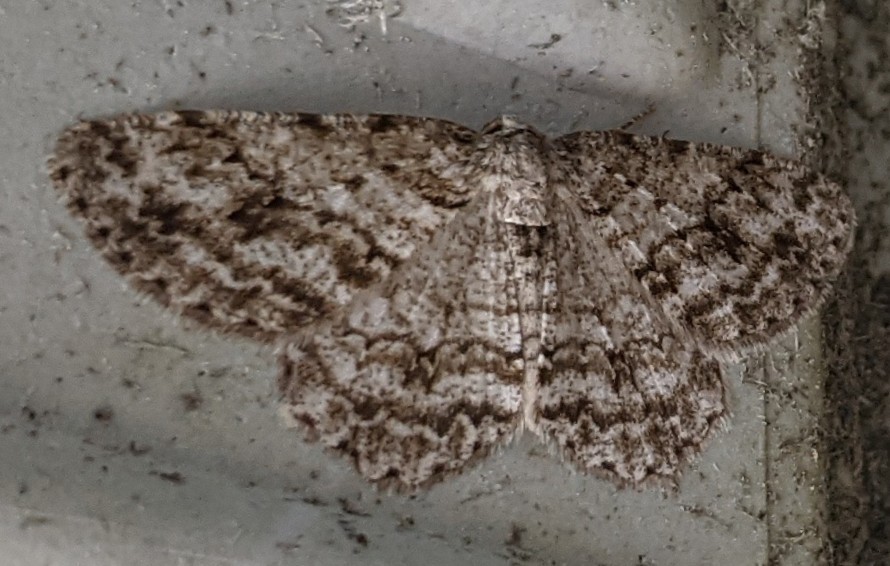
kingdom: Animalia
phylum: Arthropoda
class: Insecta
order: Lepidoptera
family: Geometridae
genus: Ectropis
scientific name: Ectropis crepuscularia
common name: Engrailed
